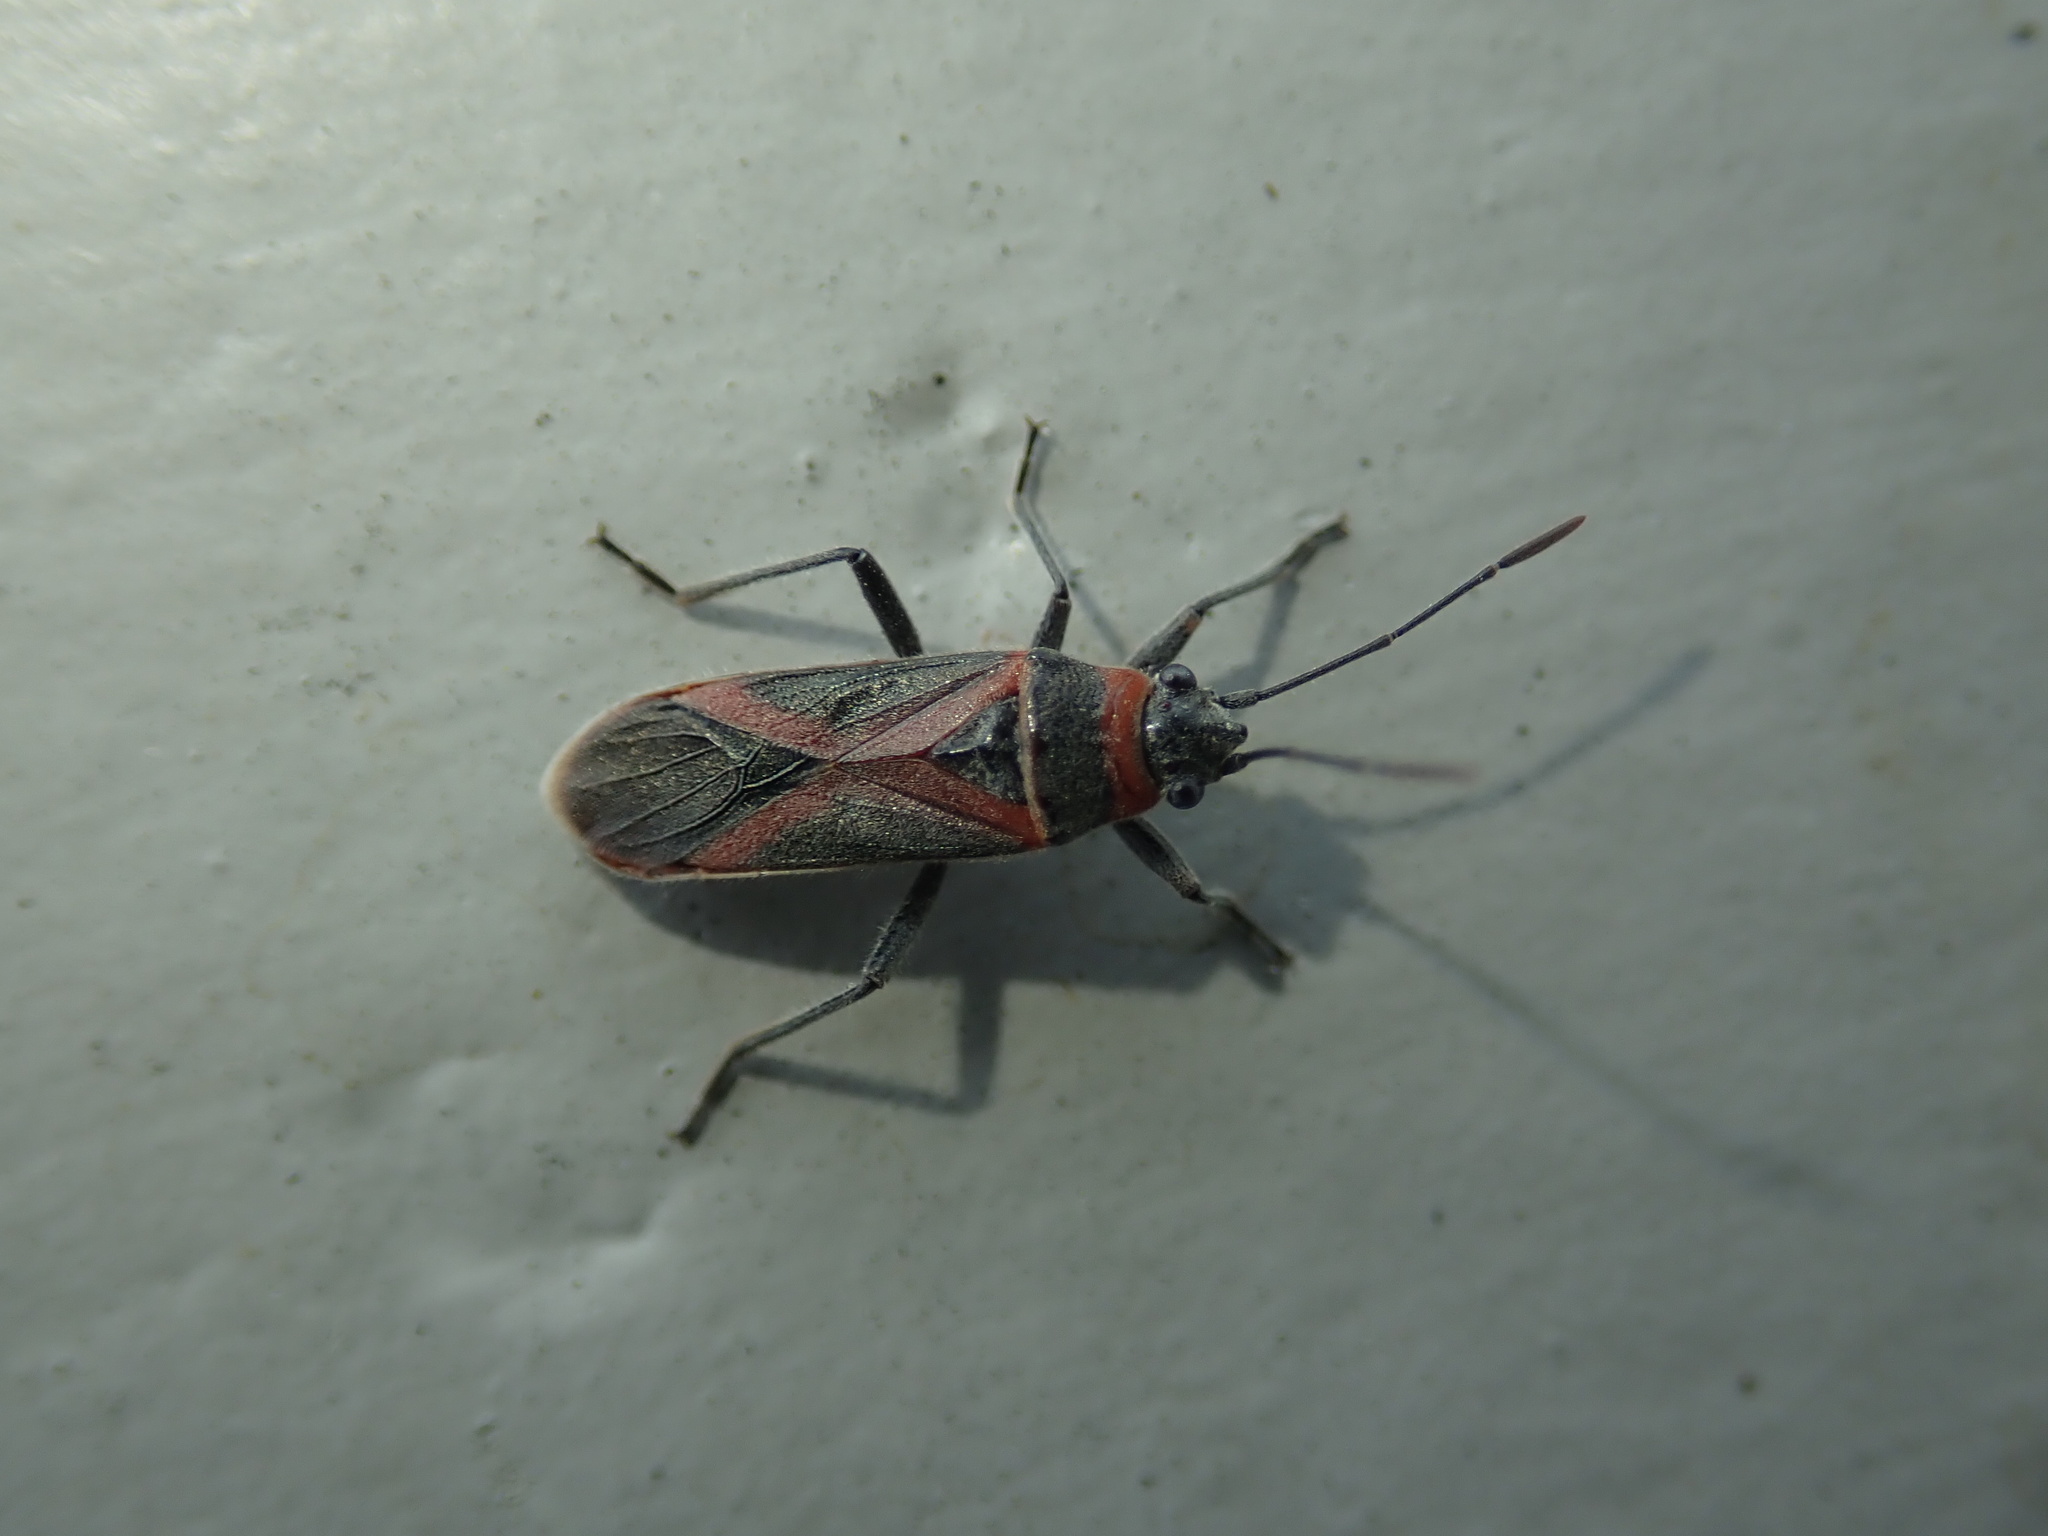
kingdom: Animalia
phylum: Arthropoda
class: Insecta
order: Hemiptera
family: Lygaeidae
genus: Arocatus
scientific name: Arocatus rusticus
